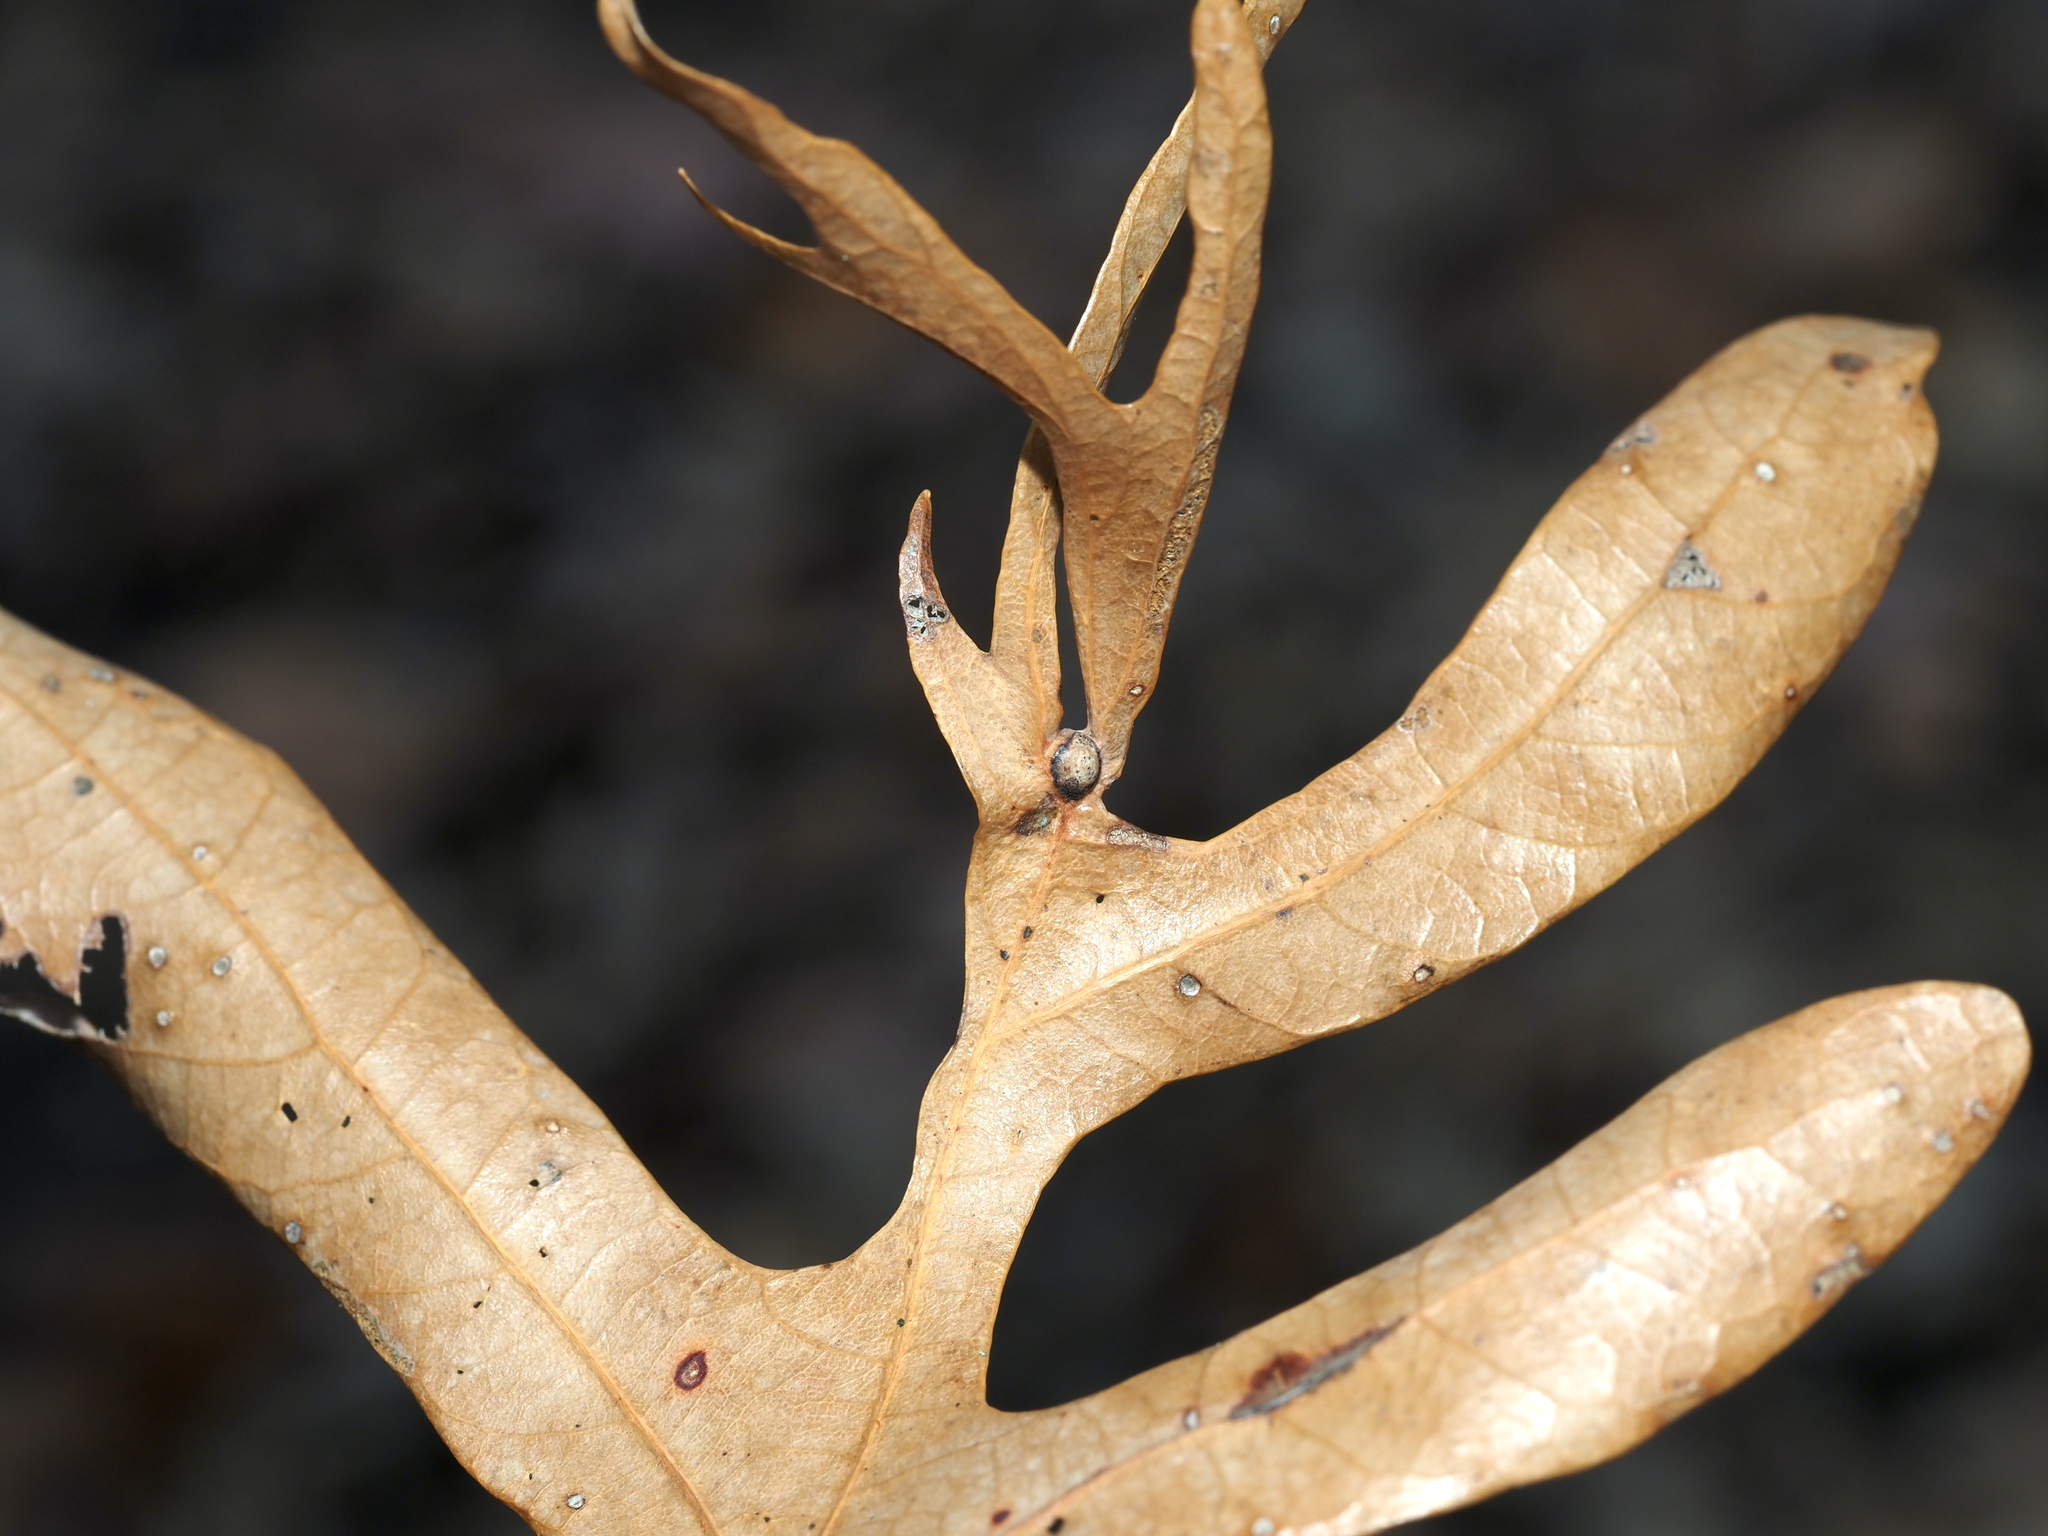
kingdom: Animalia
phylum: Arthropoda
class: Insecta
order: Hymenoptera
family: Cynipidae
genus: Andricus
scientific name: Andricus
